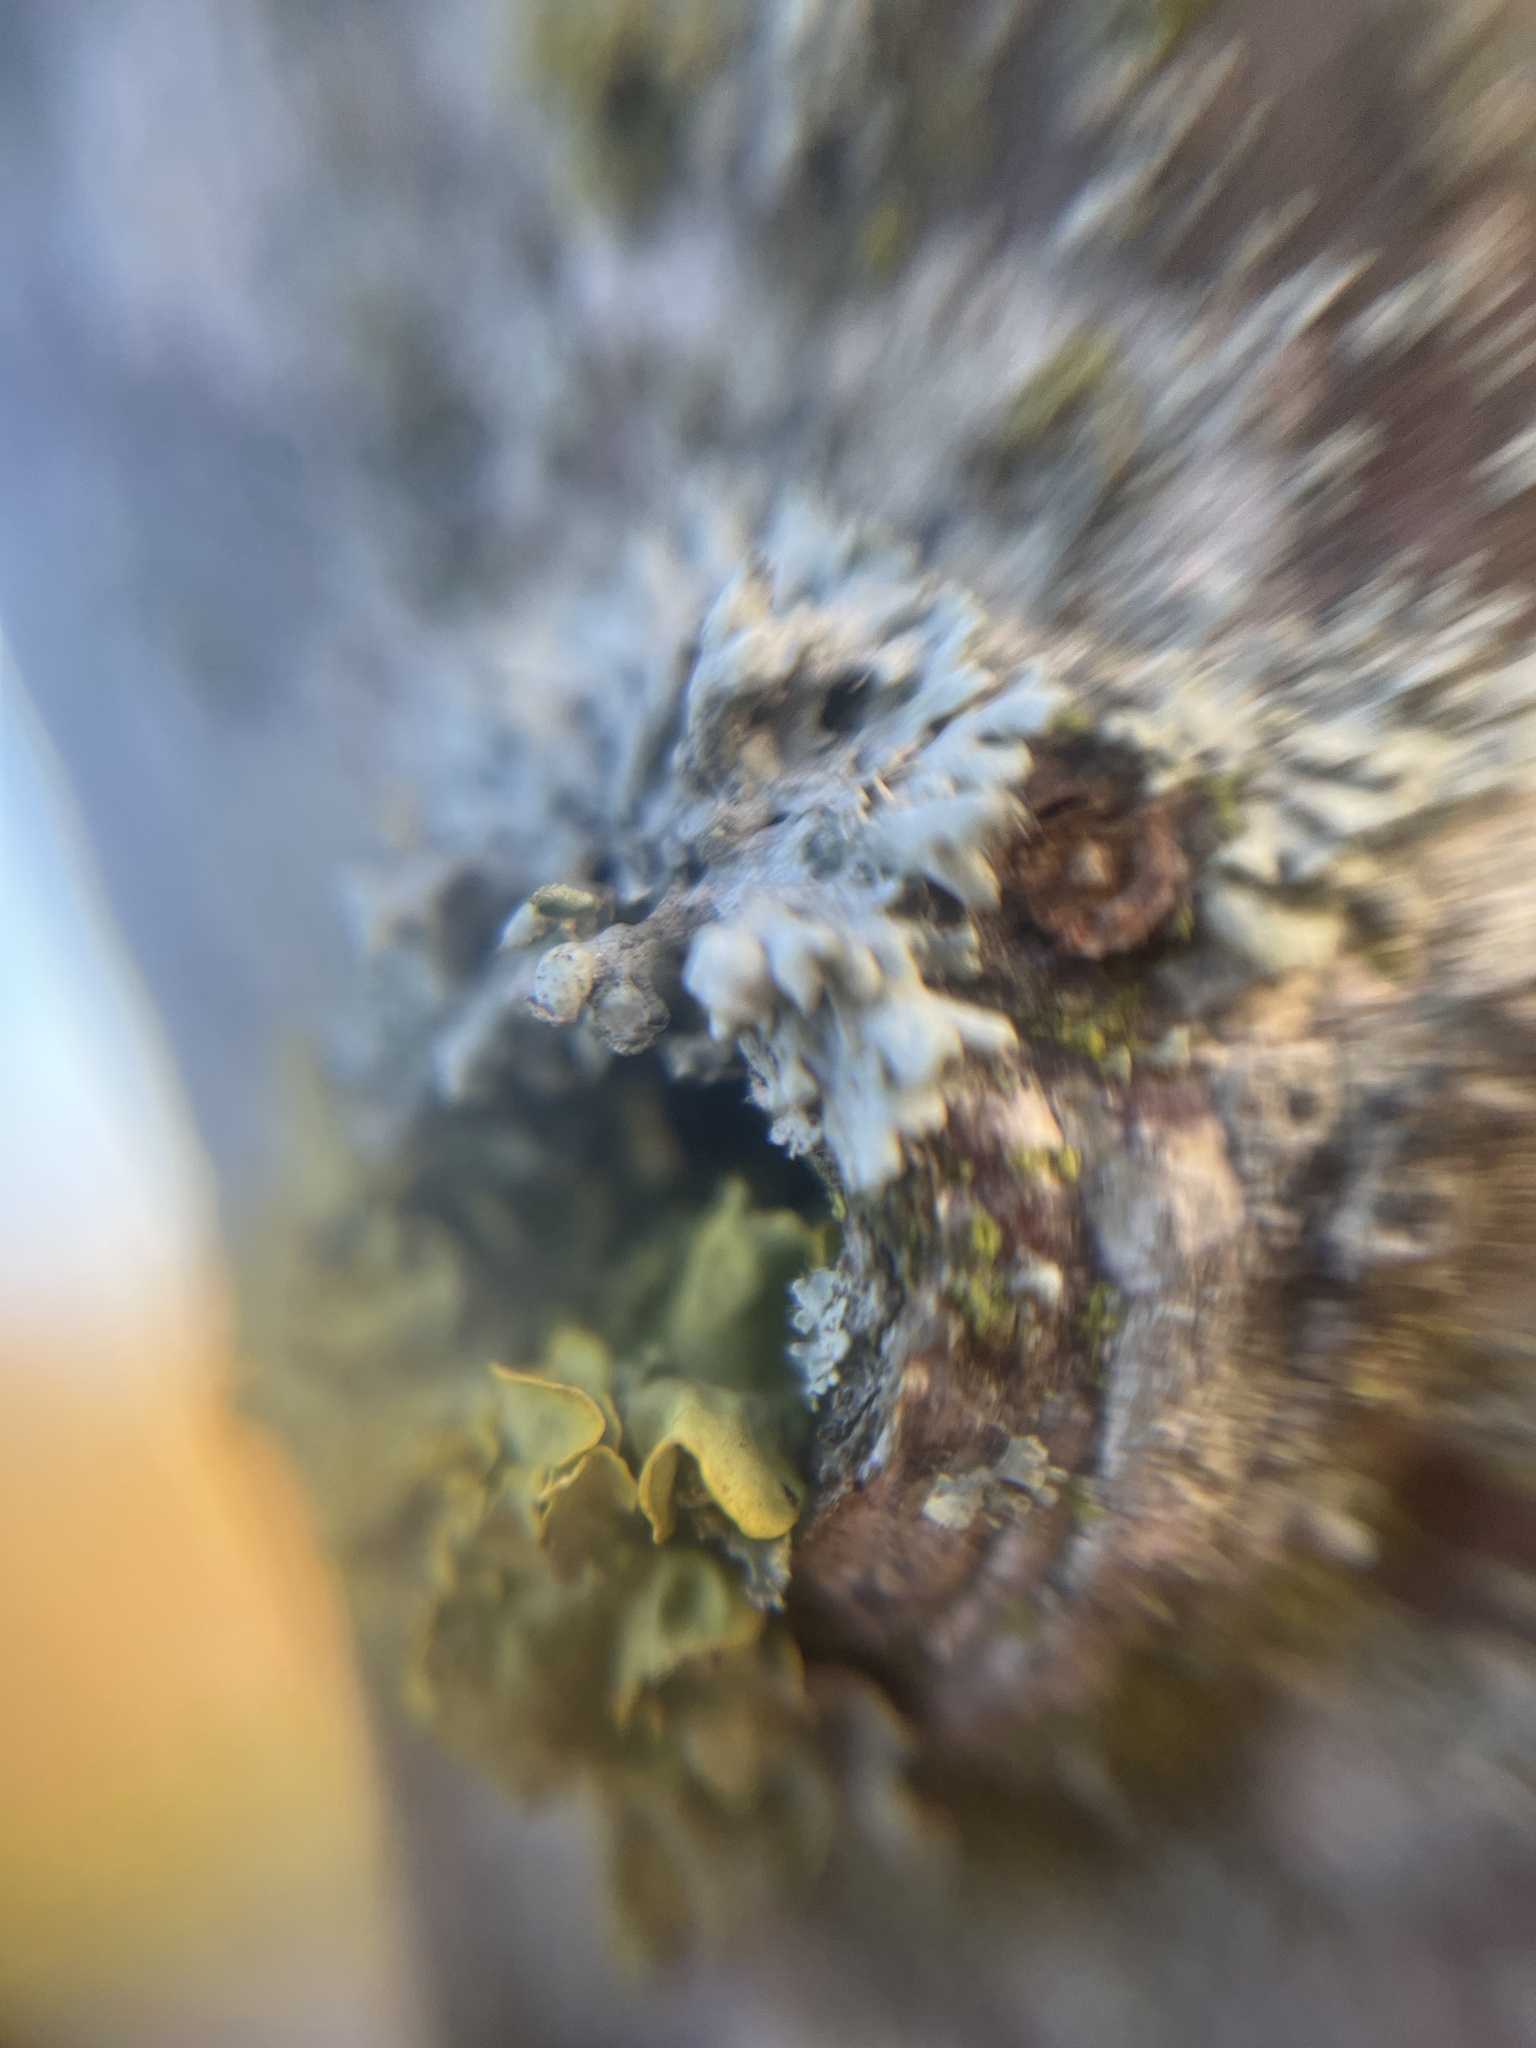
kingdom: Fungi
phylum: Ascomycota
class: Lecanoromycetes
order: Caliciales
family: Physciaceae
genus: Physcia
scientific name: Physcia adscendens
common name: Hooded rosette lichen
